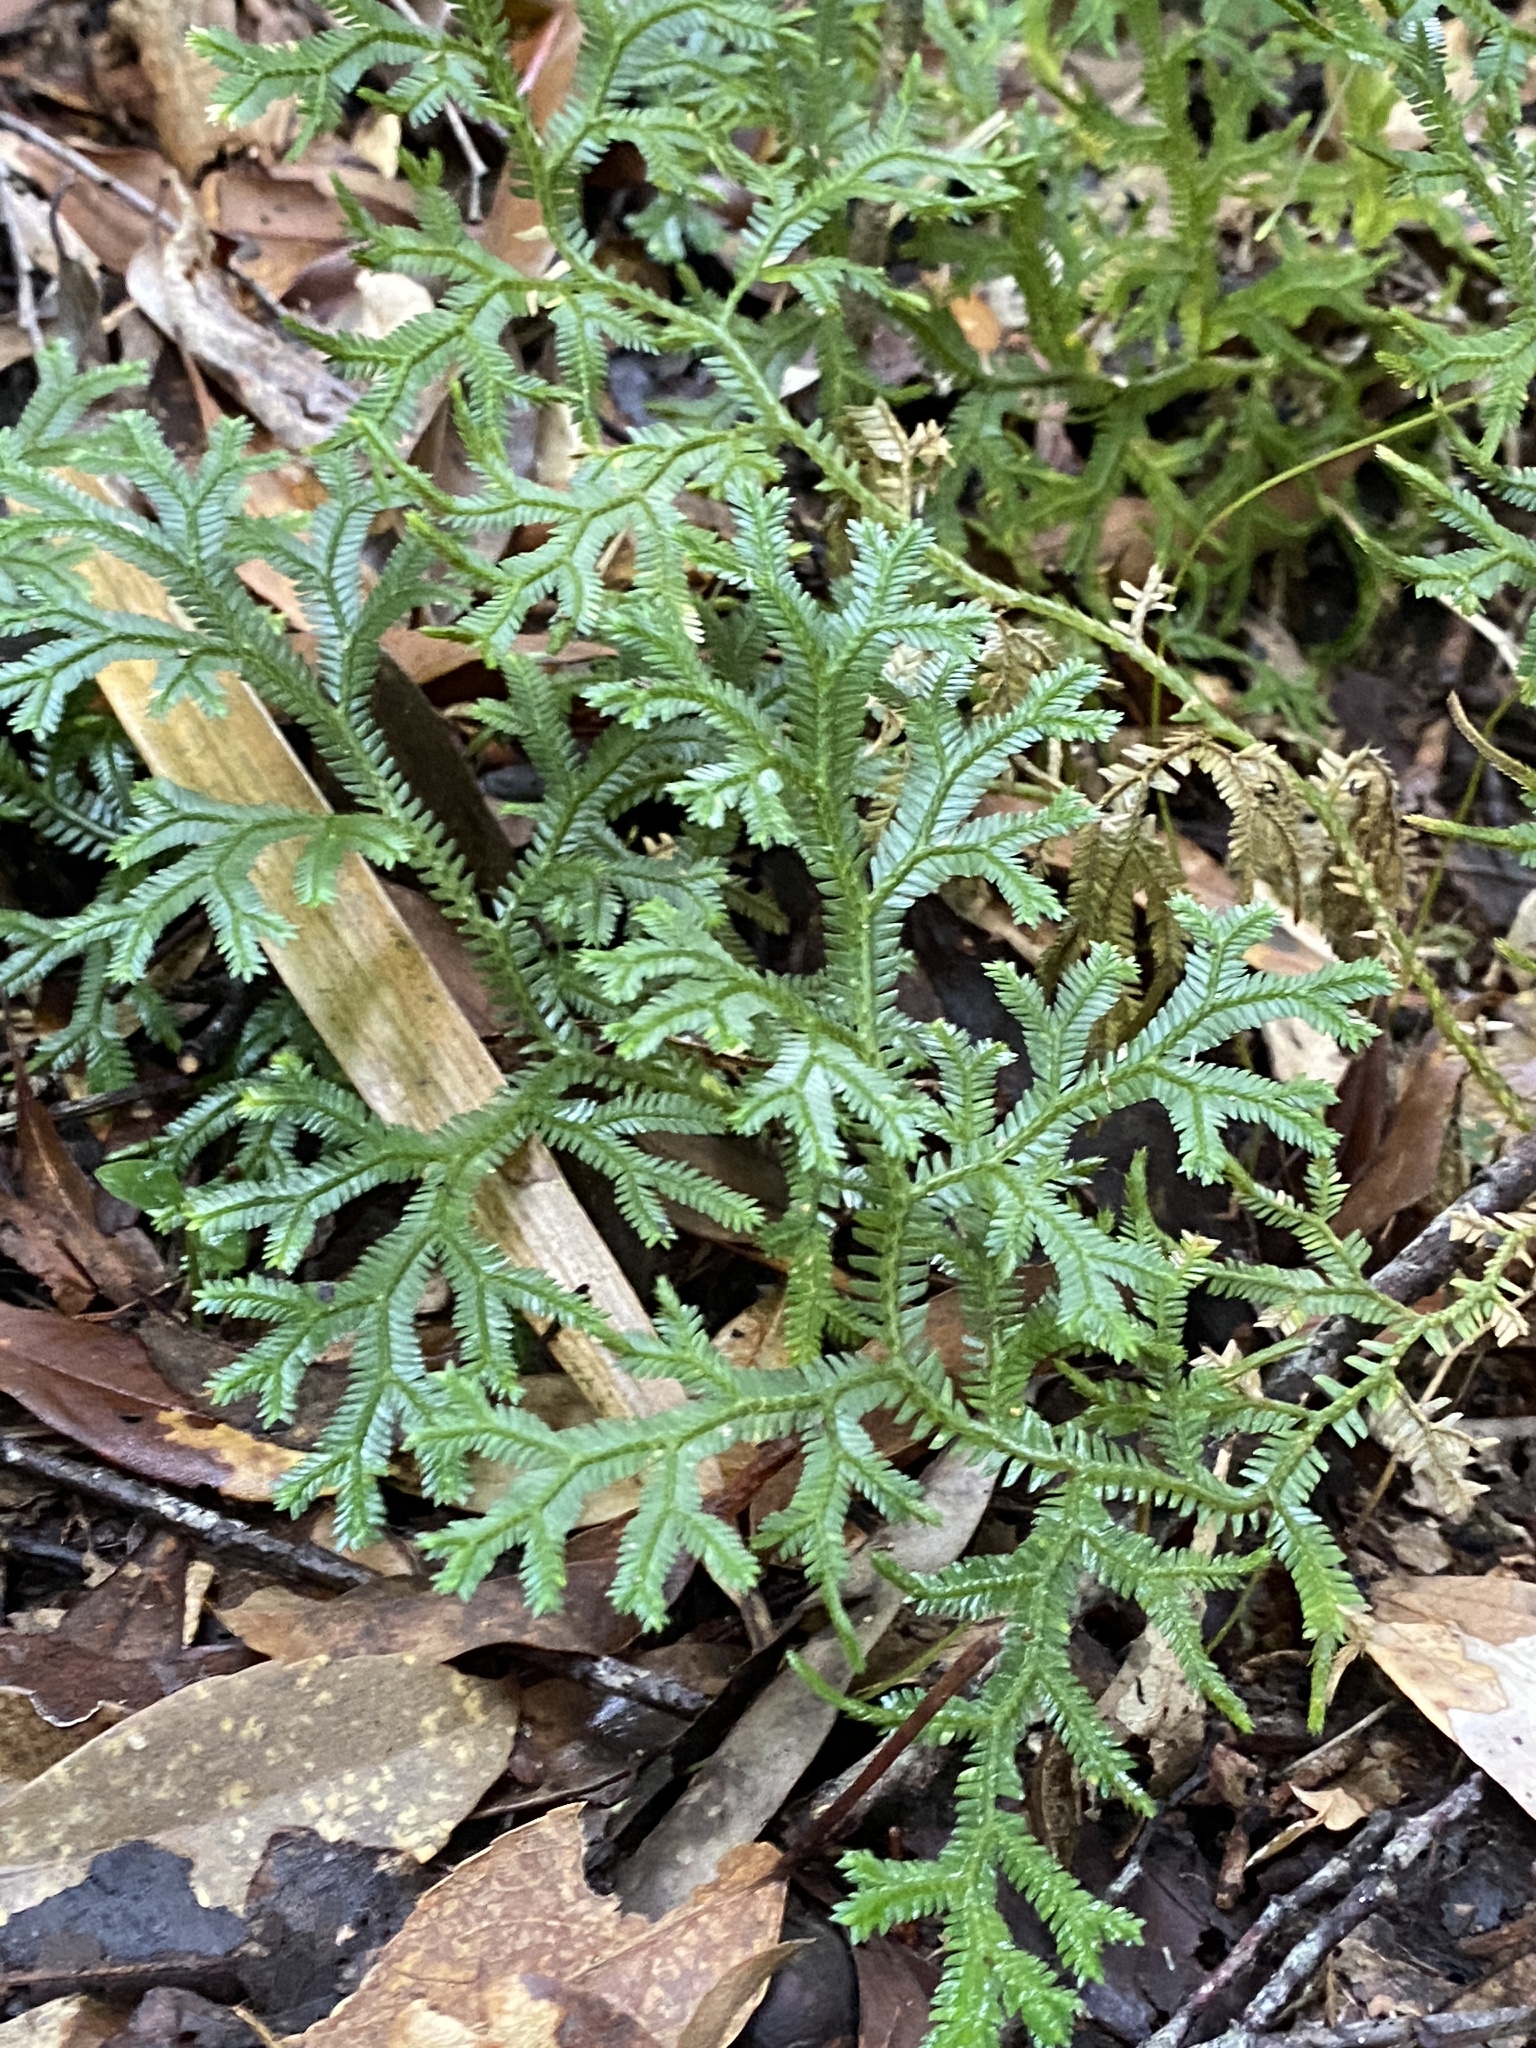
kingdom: Plantae
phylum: Tracheophyta
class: Lycopodiopsida
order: Selaginellales
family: Selaginellaceae
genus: Selaginella
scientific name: Selaginella doederleinii
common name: Greater selaginella
